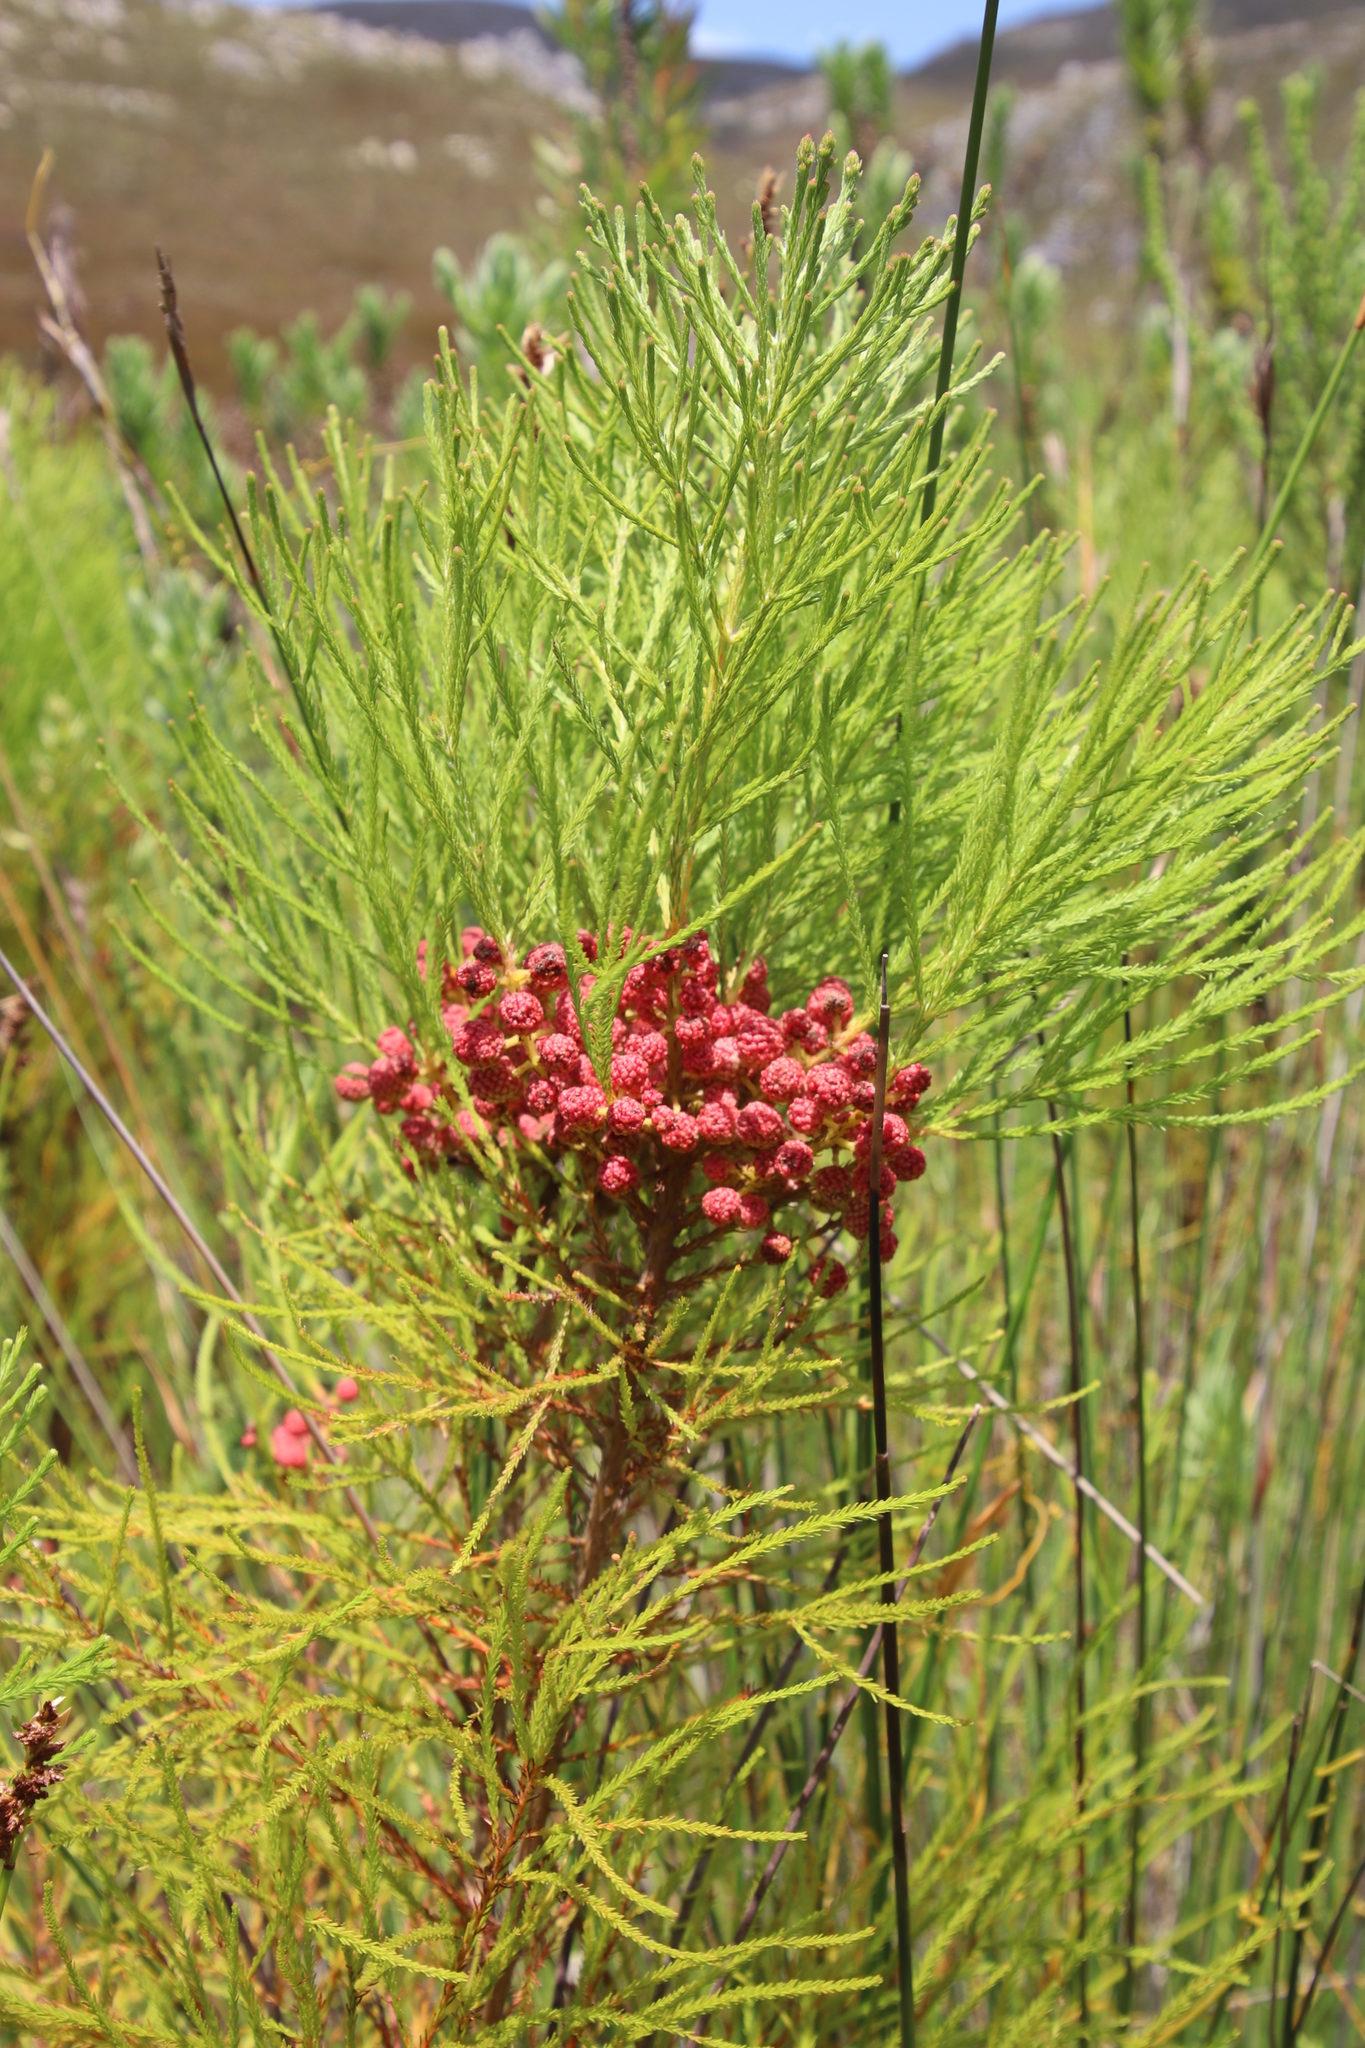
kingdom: Plantae
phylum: Tracheophyta
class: Magnoliopsida
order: Bruniales
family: Bruniaceae
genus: Berzelia
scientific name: Berzelia lanuginosa
